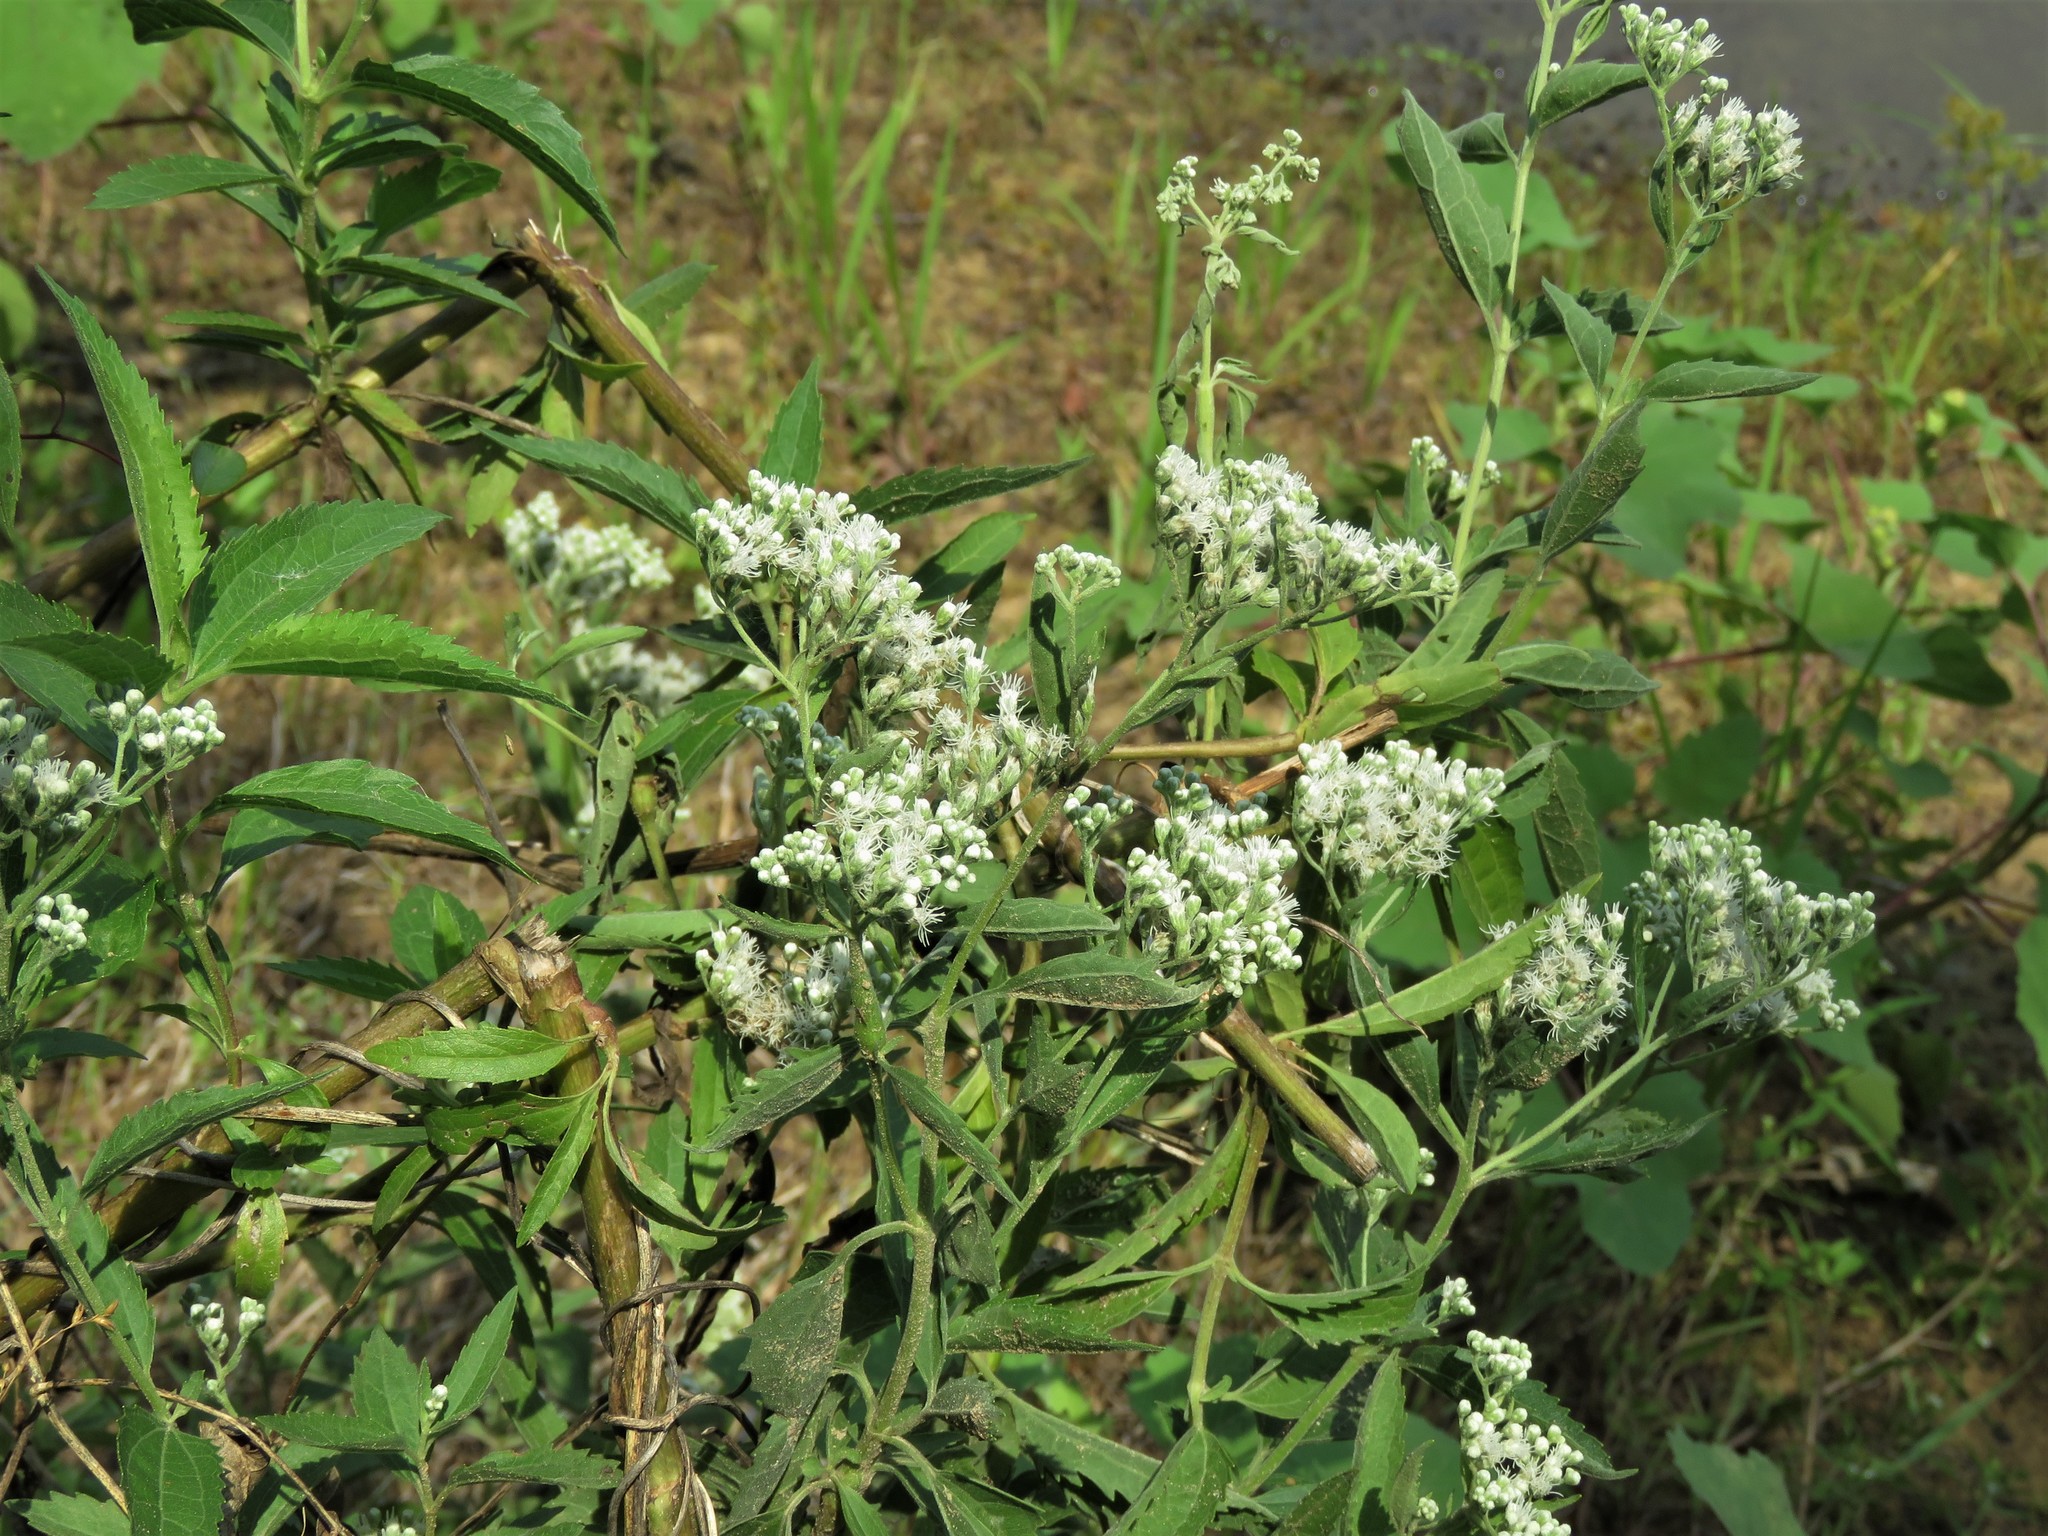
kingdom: Plantae
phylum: Tracheophyta
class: Magnoliopsida
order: Asterales
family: Asteraceae
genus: Eupatorium
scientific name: Eupatorium serotinum
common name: Late boneset
